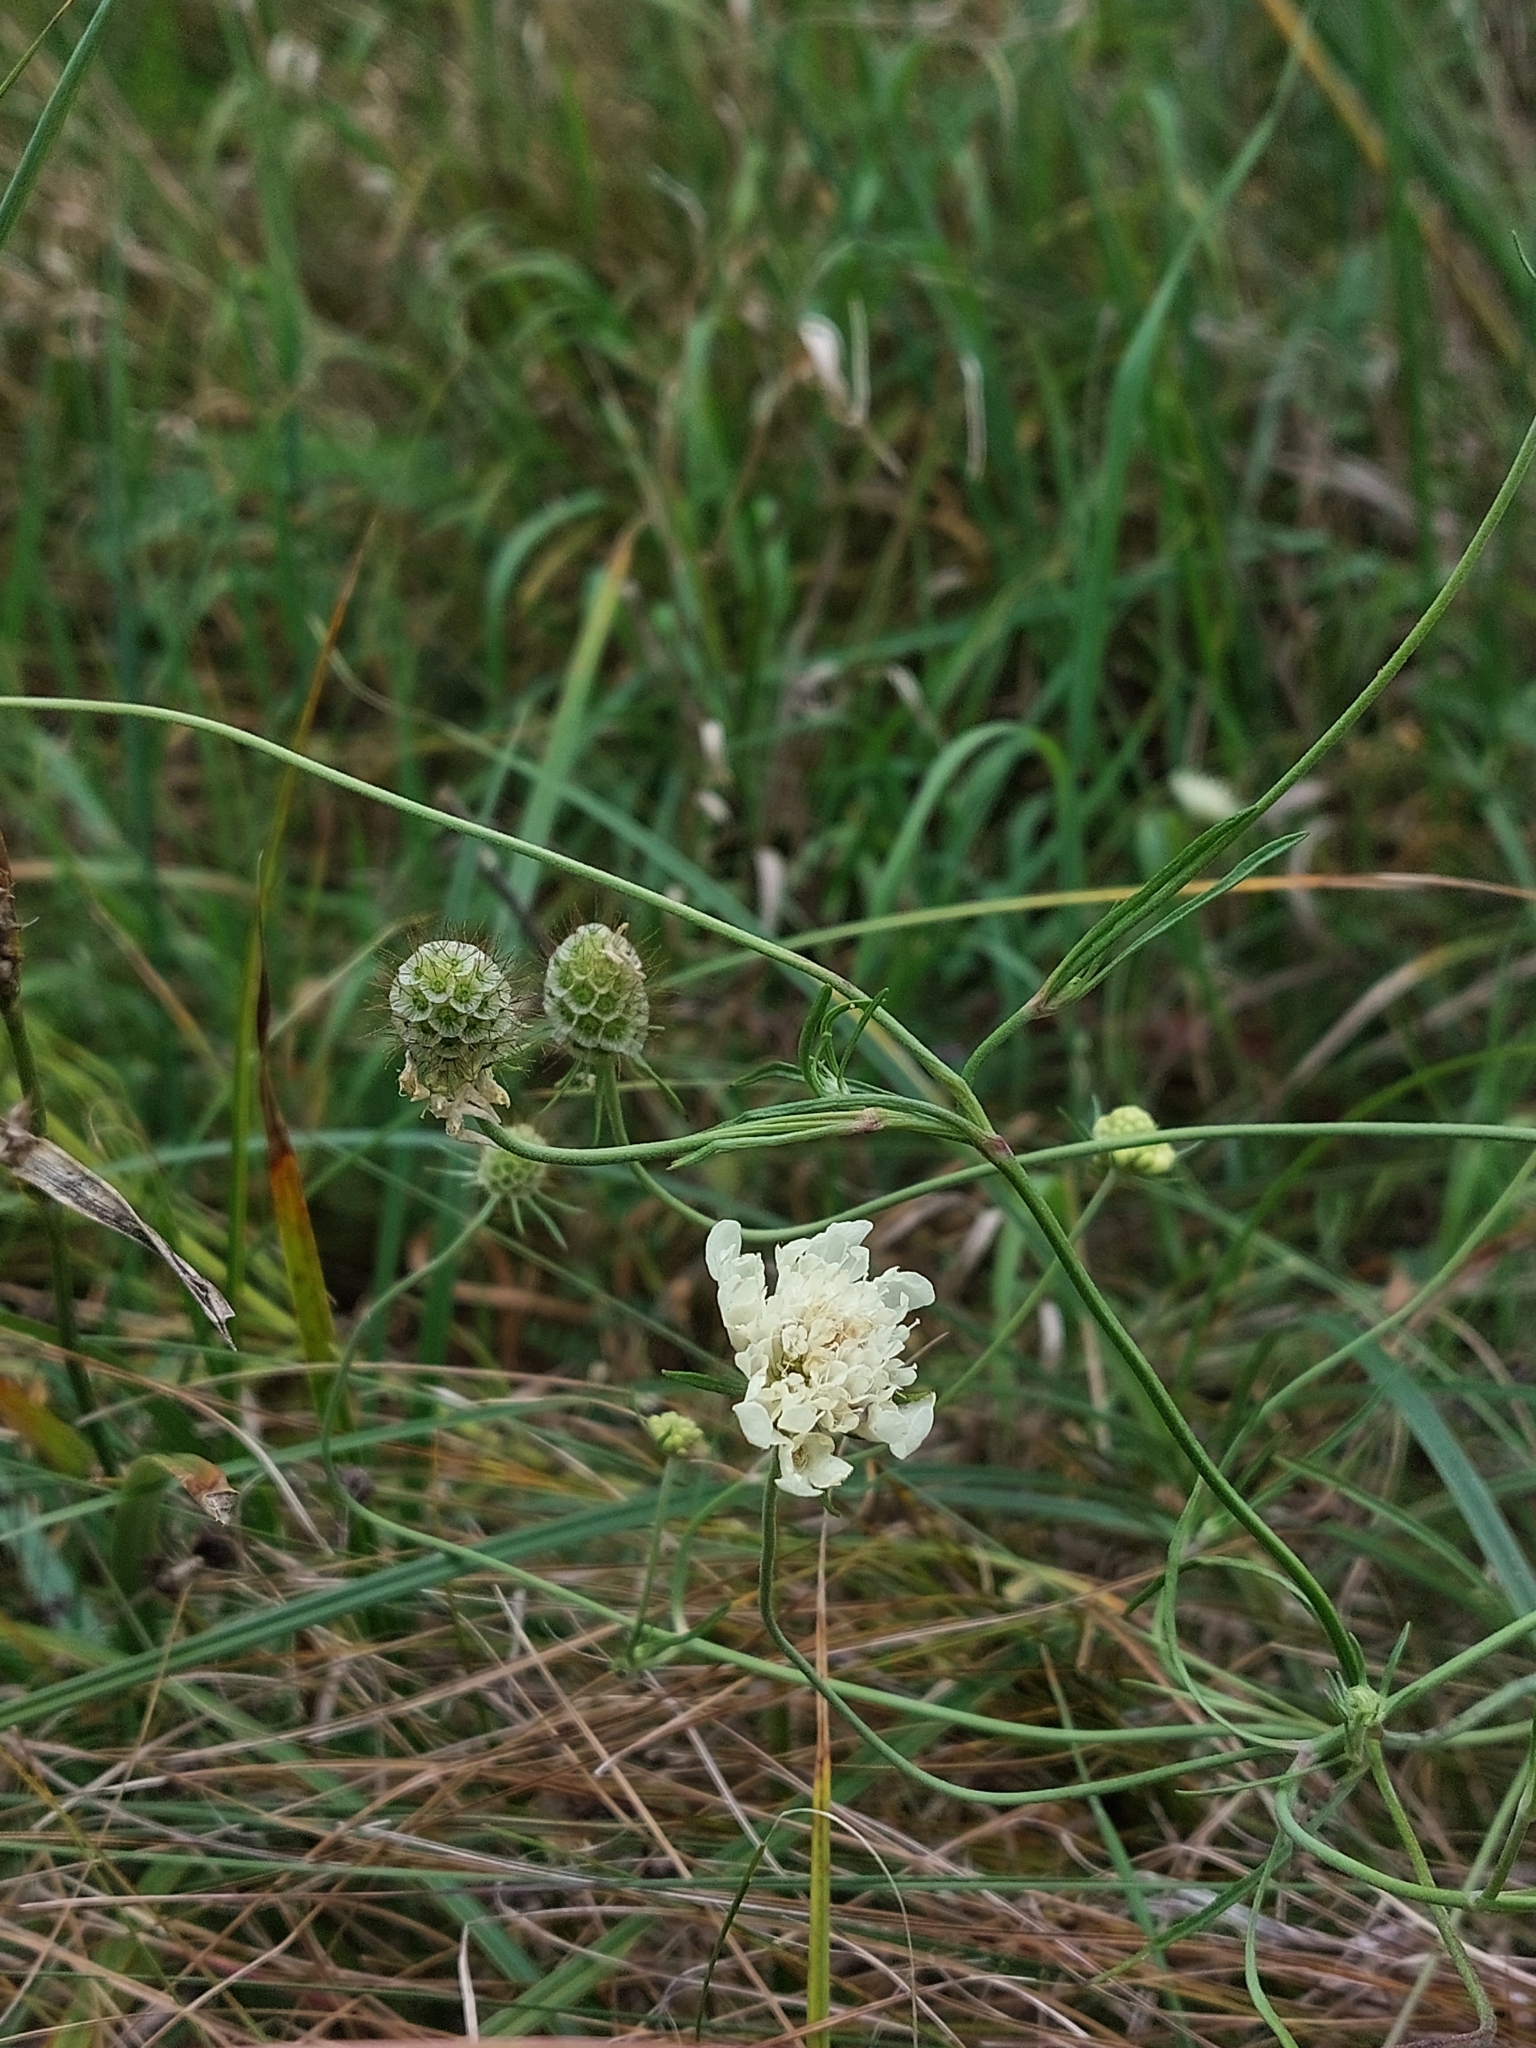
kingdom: Plantae
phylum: Tracheophyta
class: Magnoliopsida
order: Dipsacales
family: Caprifoliaceae
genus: Scabiosa
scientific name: Scabiosa ochroleuca
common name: Cream pincushions
